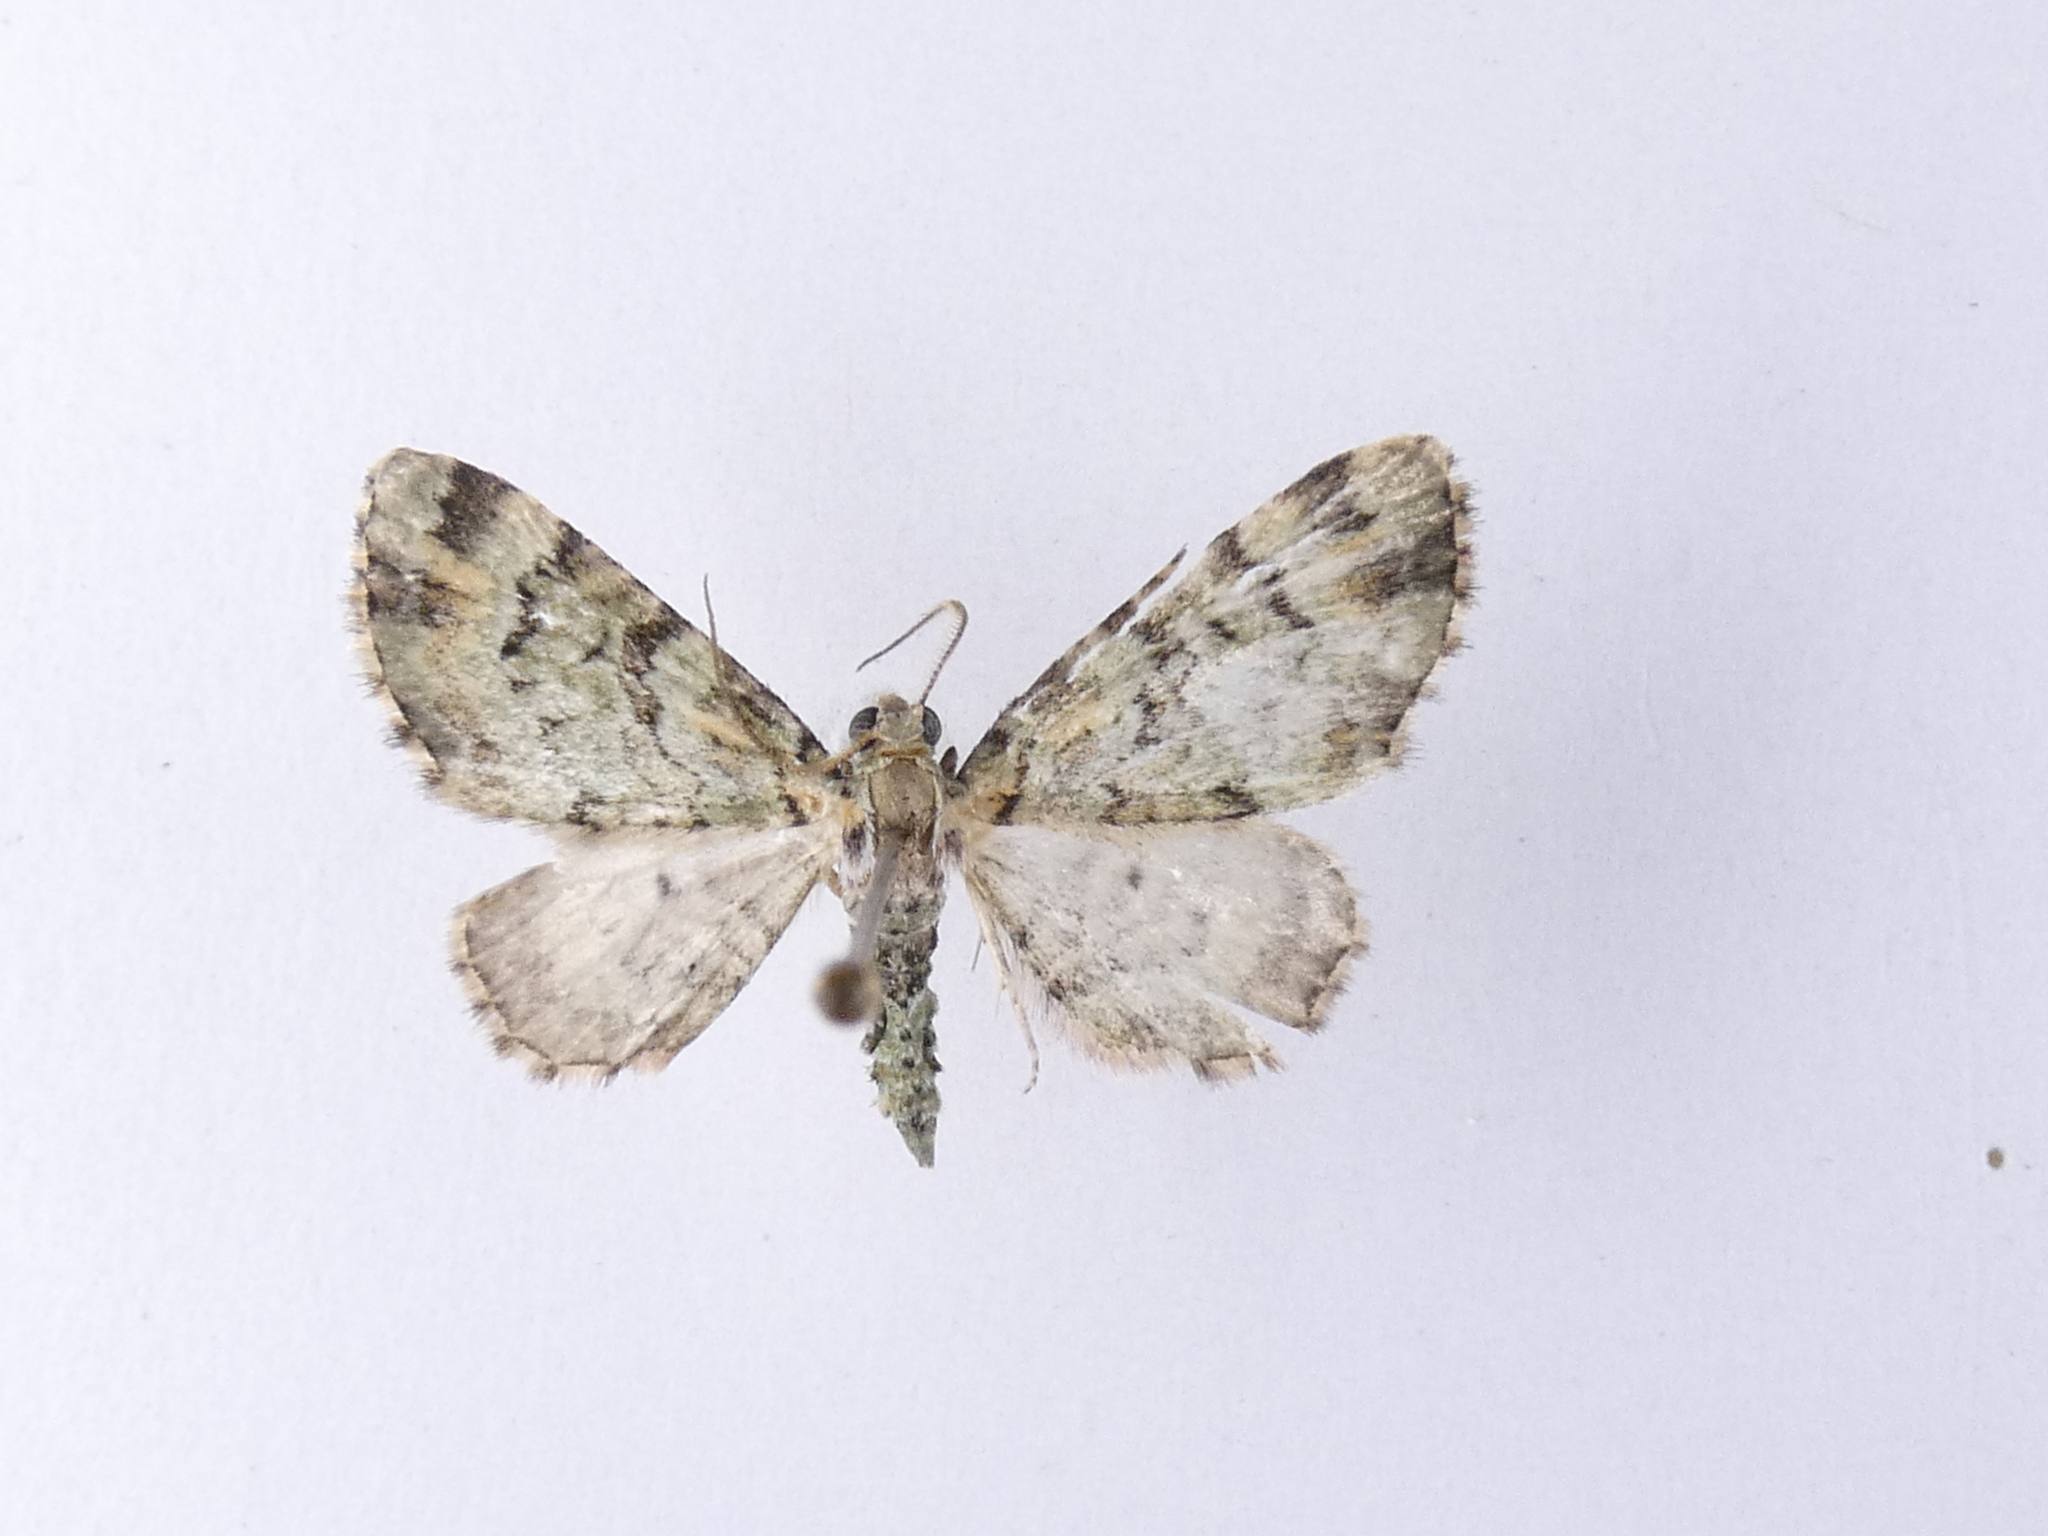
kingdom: Animalia
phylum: Arthropoda
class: Insecta
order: Lepidoptera
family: Geometridae
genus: Pasiphila
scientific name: Pasiphila bilineolata
